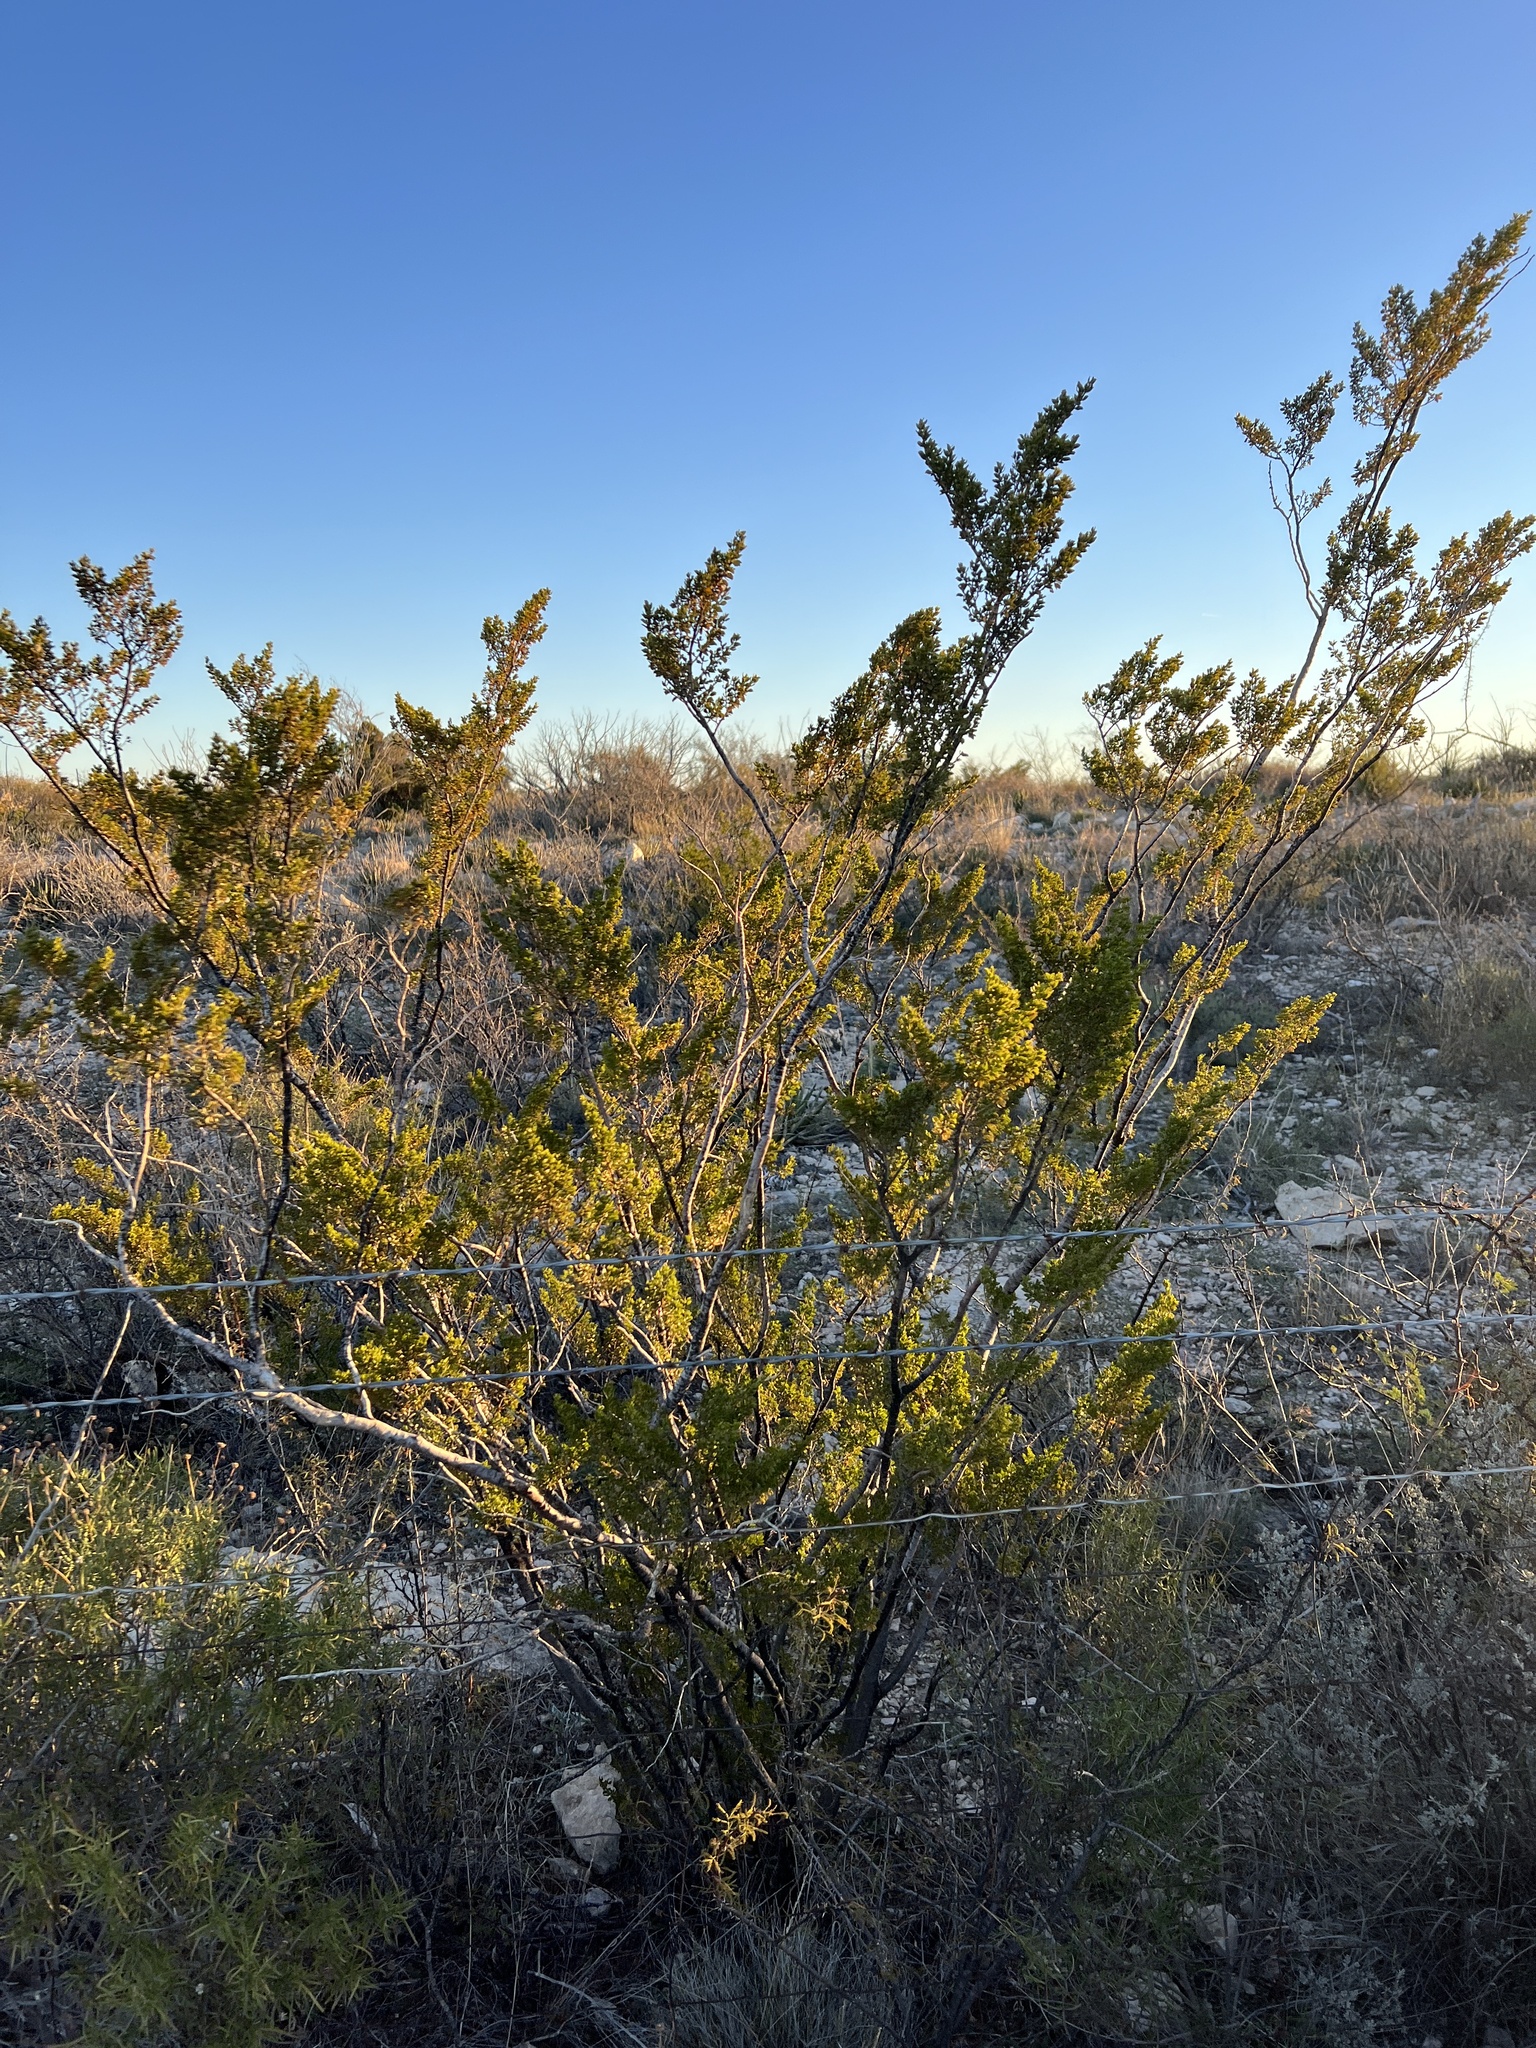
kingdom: Plantae
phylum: Tracheophyta
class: Magnoliopsida
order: Zygophyllales
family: Zygophyllaceae
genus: Larrea
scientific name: Larrea tridentata
